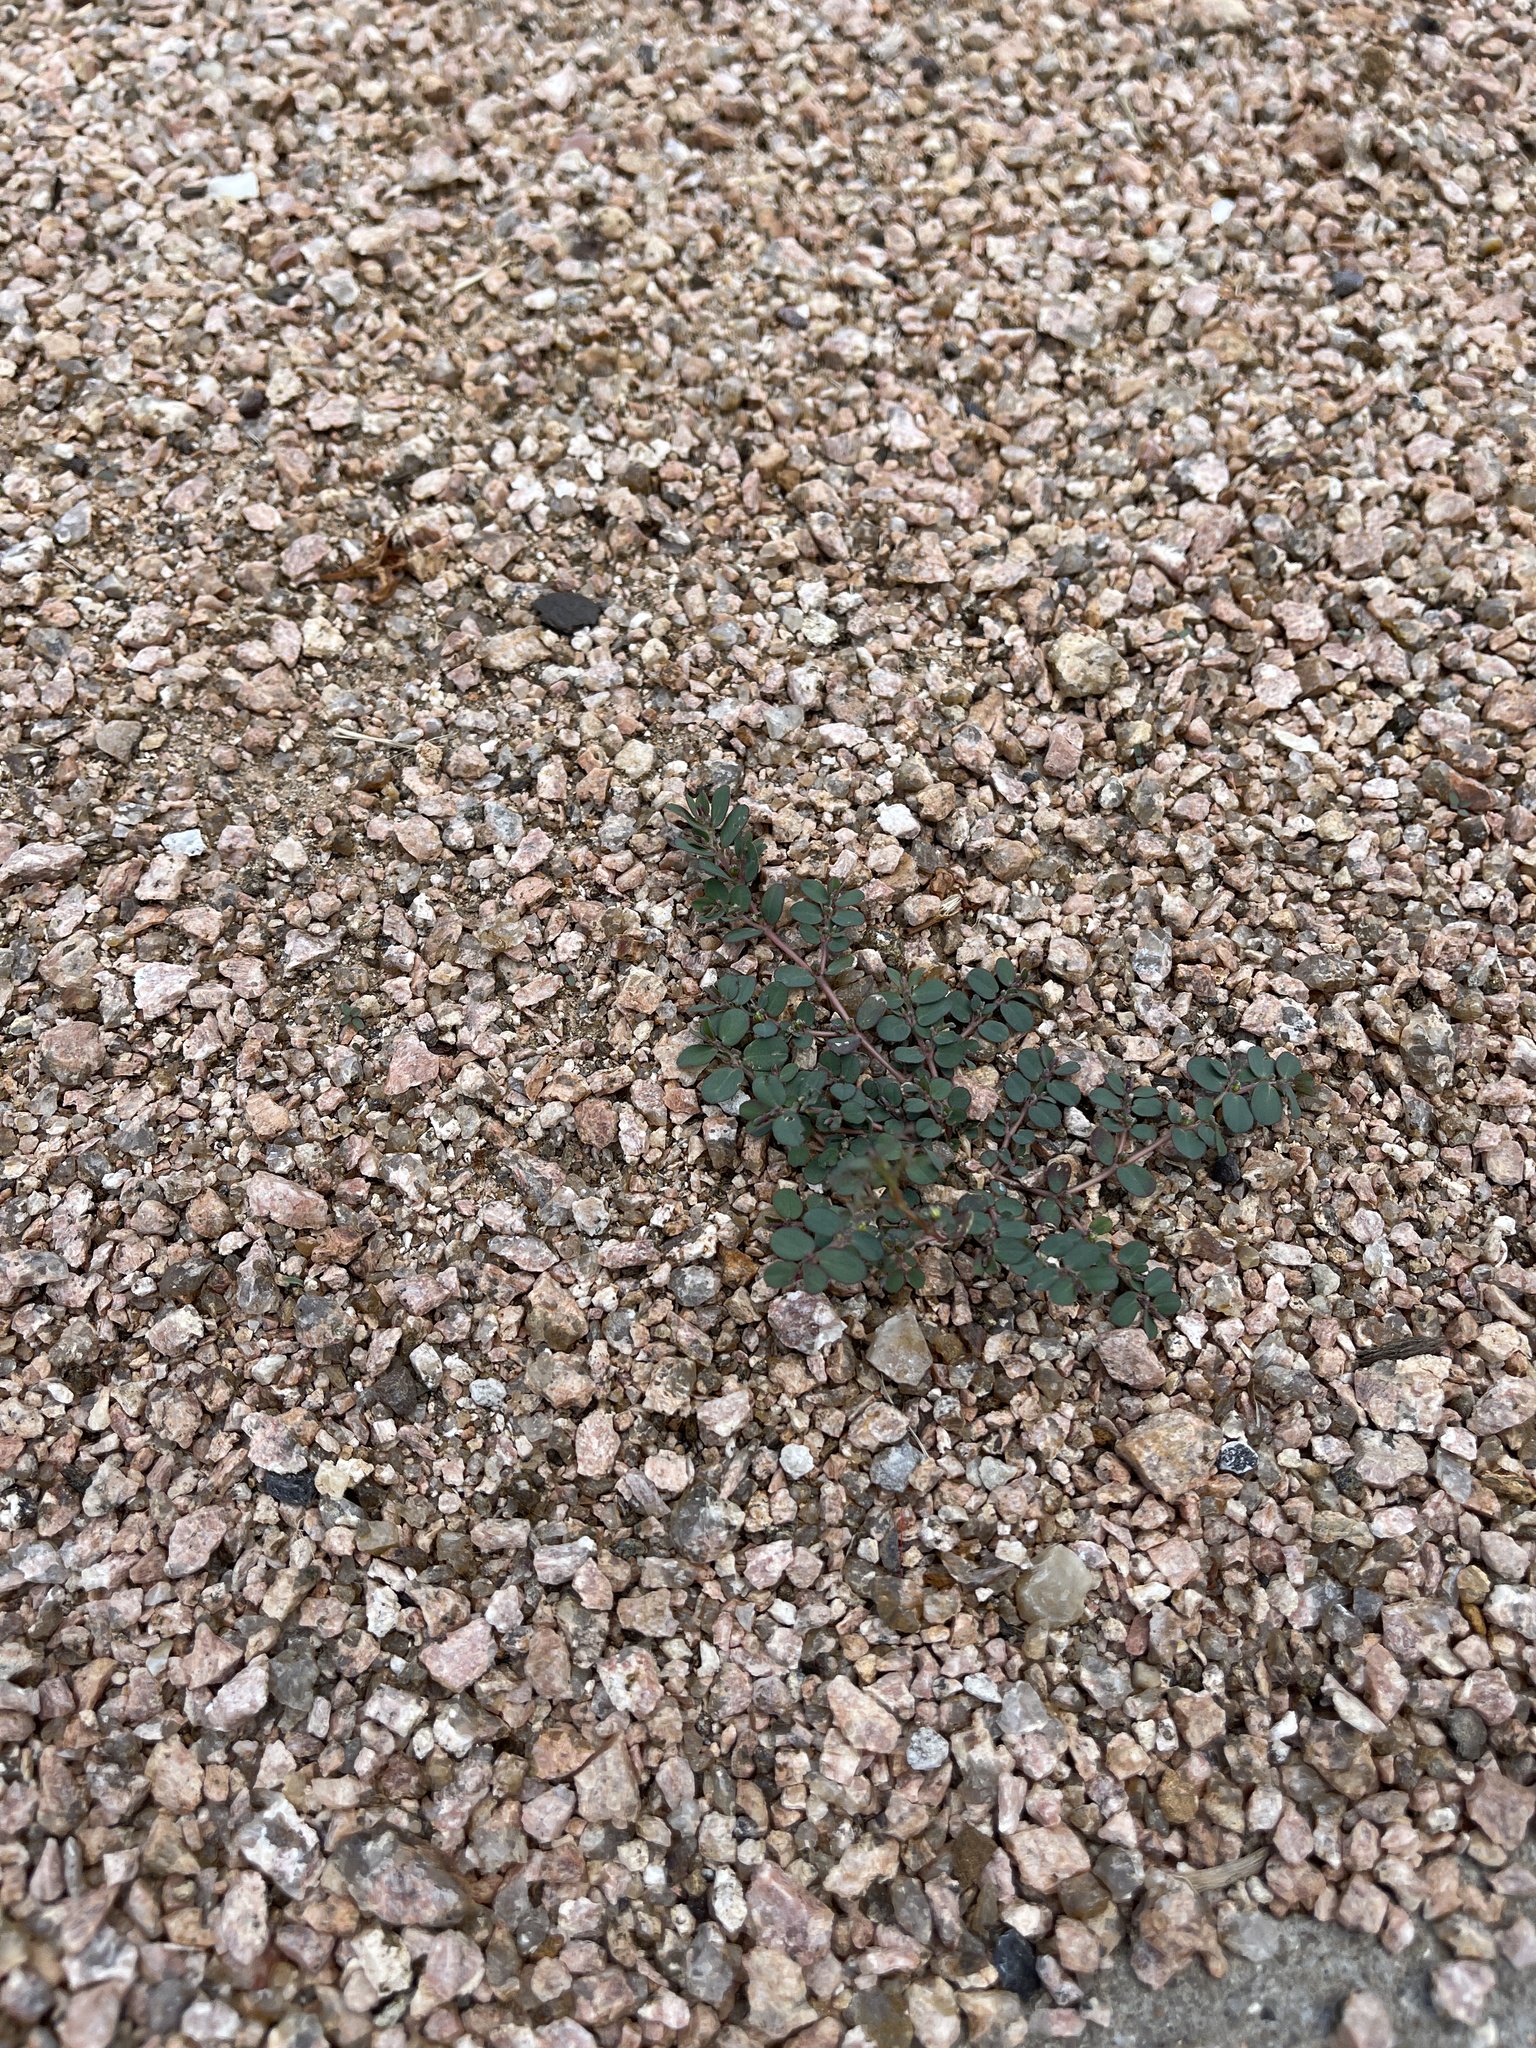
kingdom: Plantae
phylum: Tracheophyta
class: Magnoliopsida
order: Malpighiales
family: Euphorbiaceae
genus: Euphorbia
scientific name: Euphorbia prostrata
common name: Prostrate sandmat
